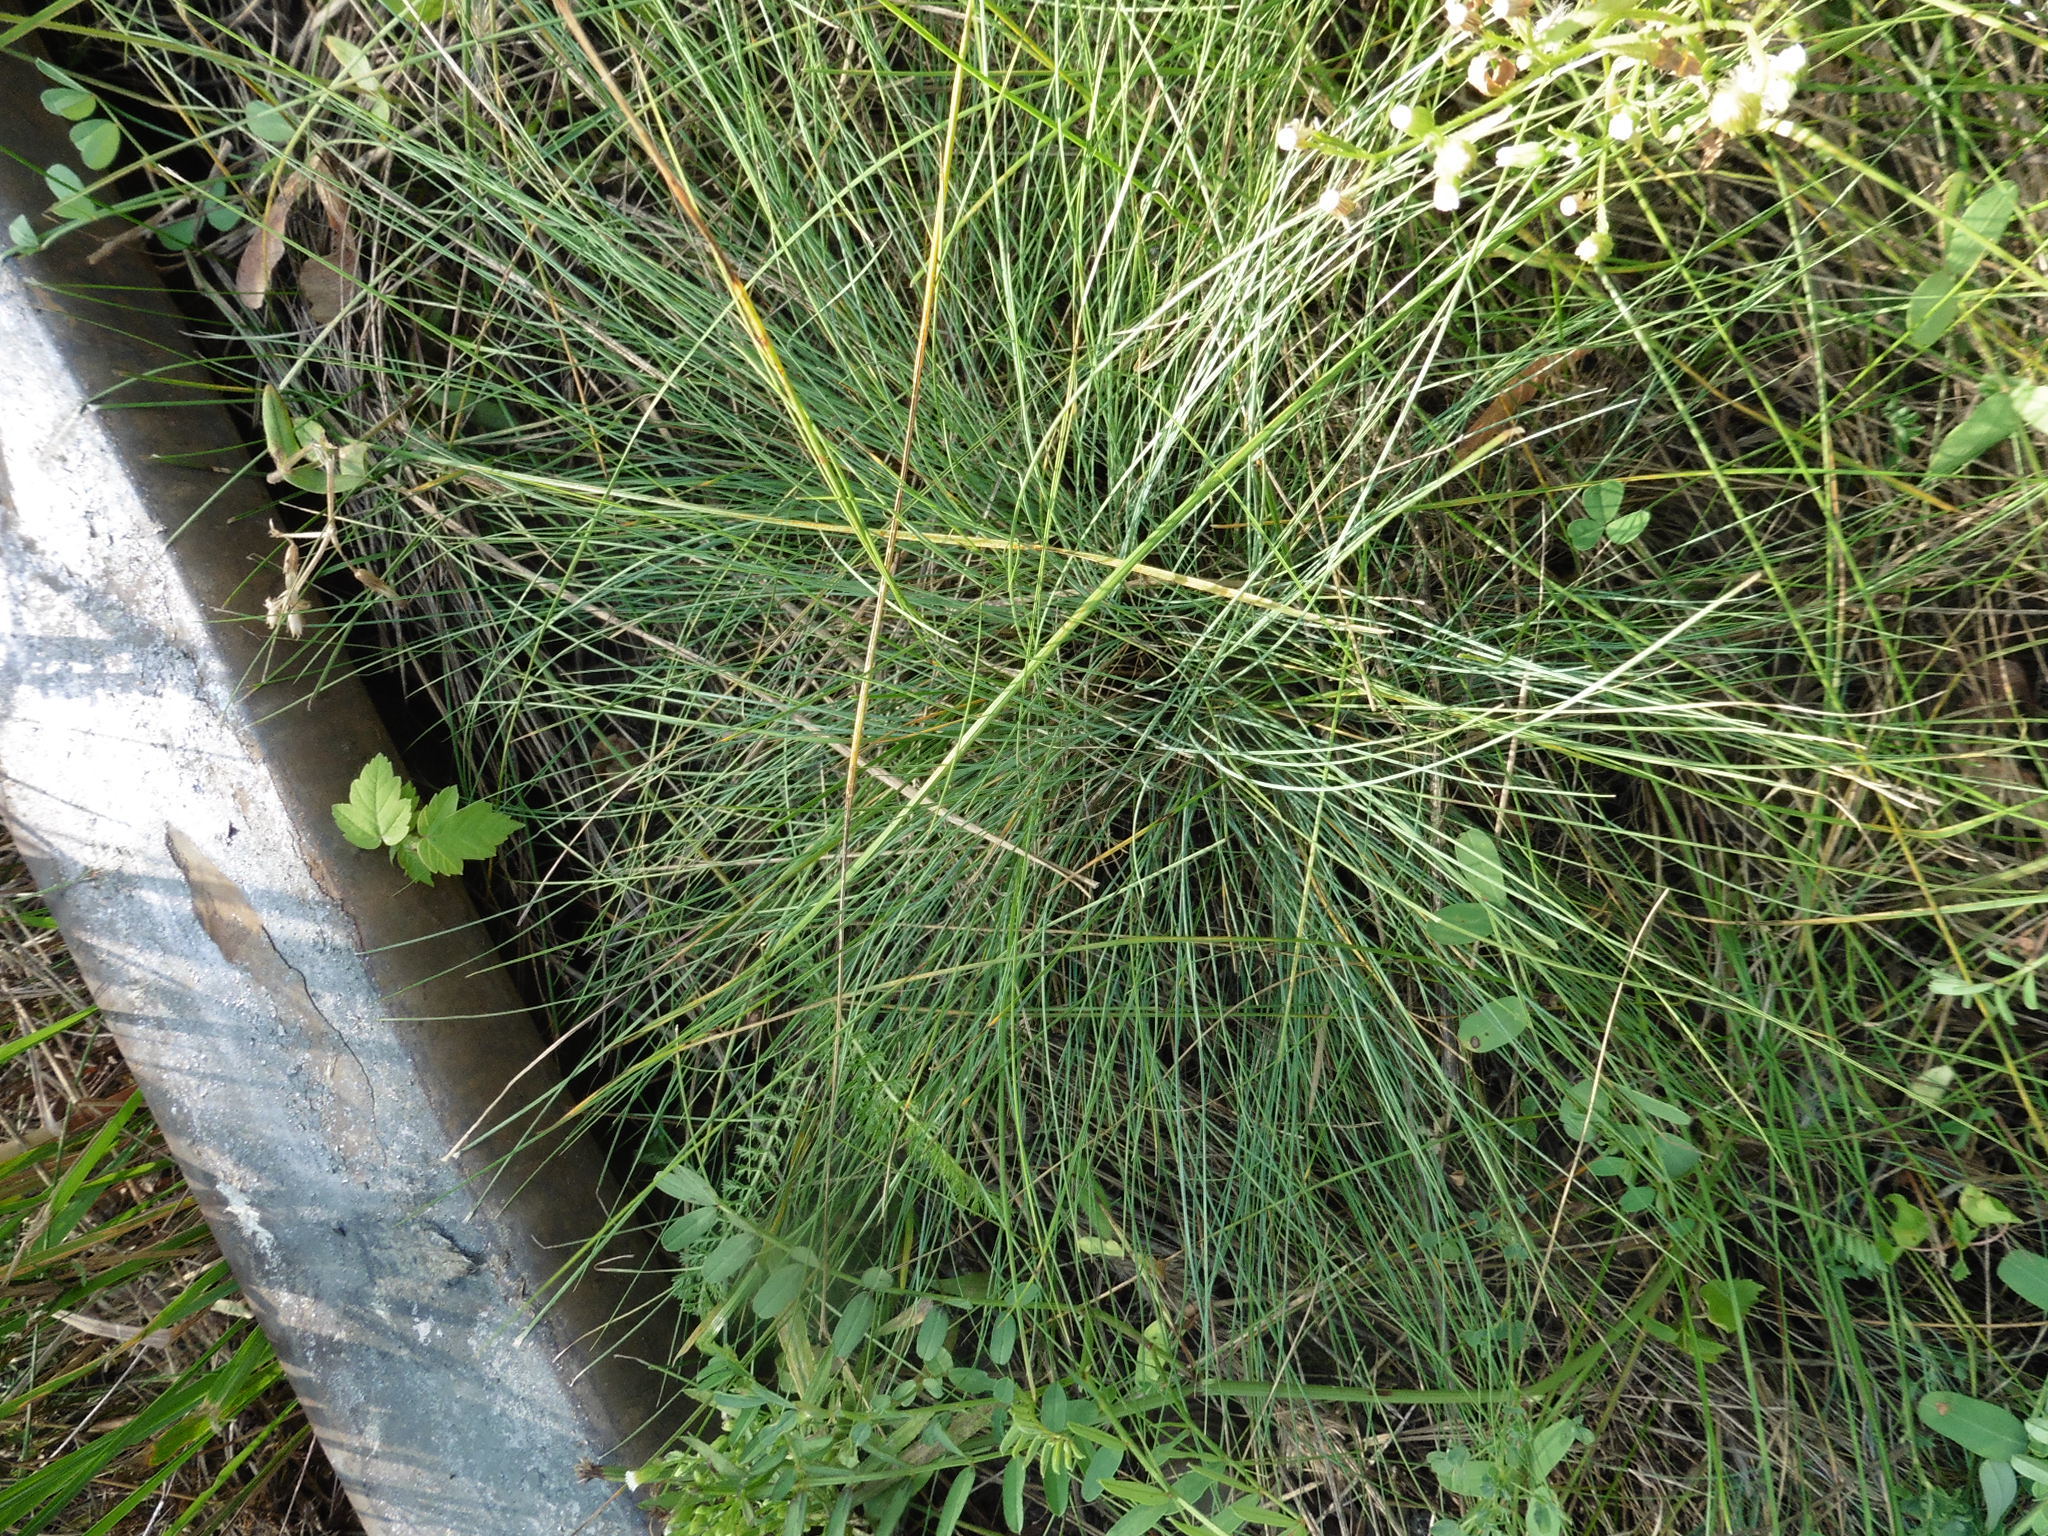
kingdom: Plantae
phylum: Tracheophyta
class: Liliopsida
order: Poales
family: Poaceae
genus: Festuca
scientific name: Festuca valesiaca
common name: Volga fescue
